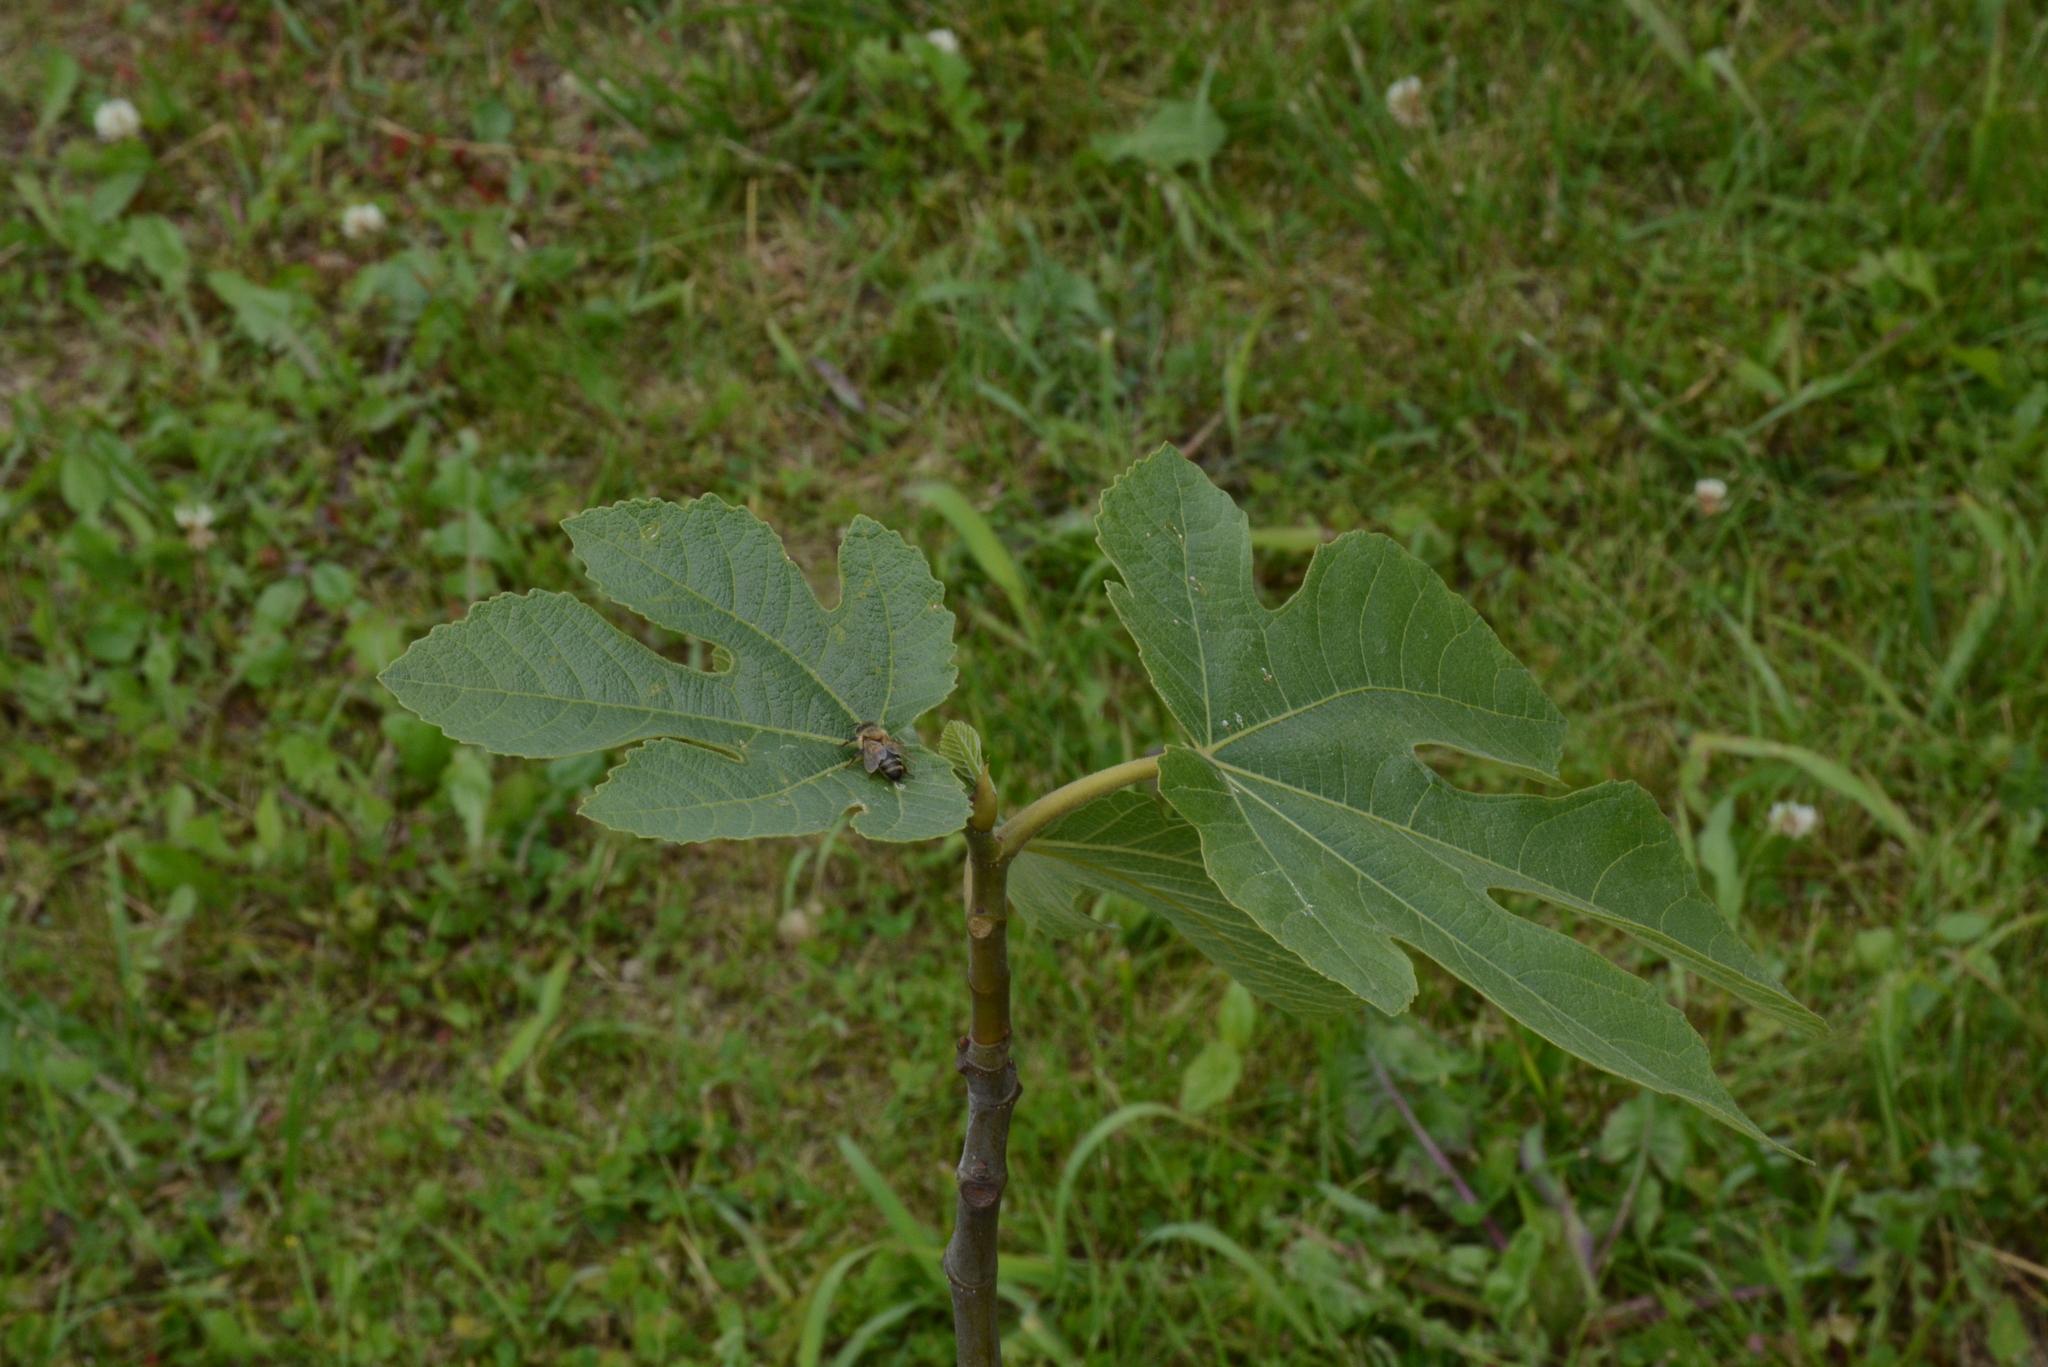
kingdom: Animalia
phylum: Arthropoda
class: Insecta
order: Hymenoptera
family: Apidae
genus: Apis
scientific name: Apis mellifera
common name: Honey bee
